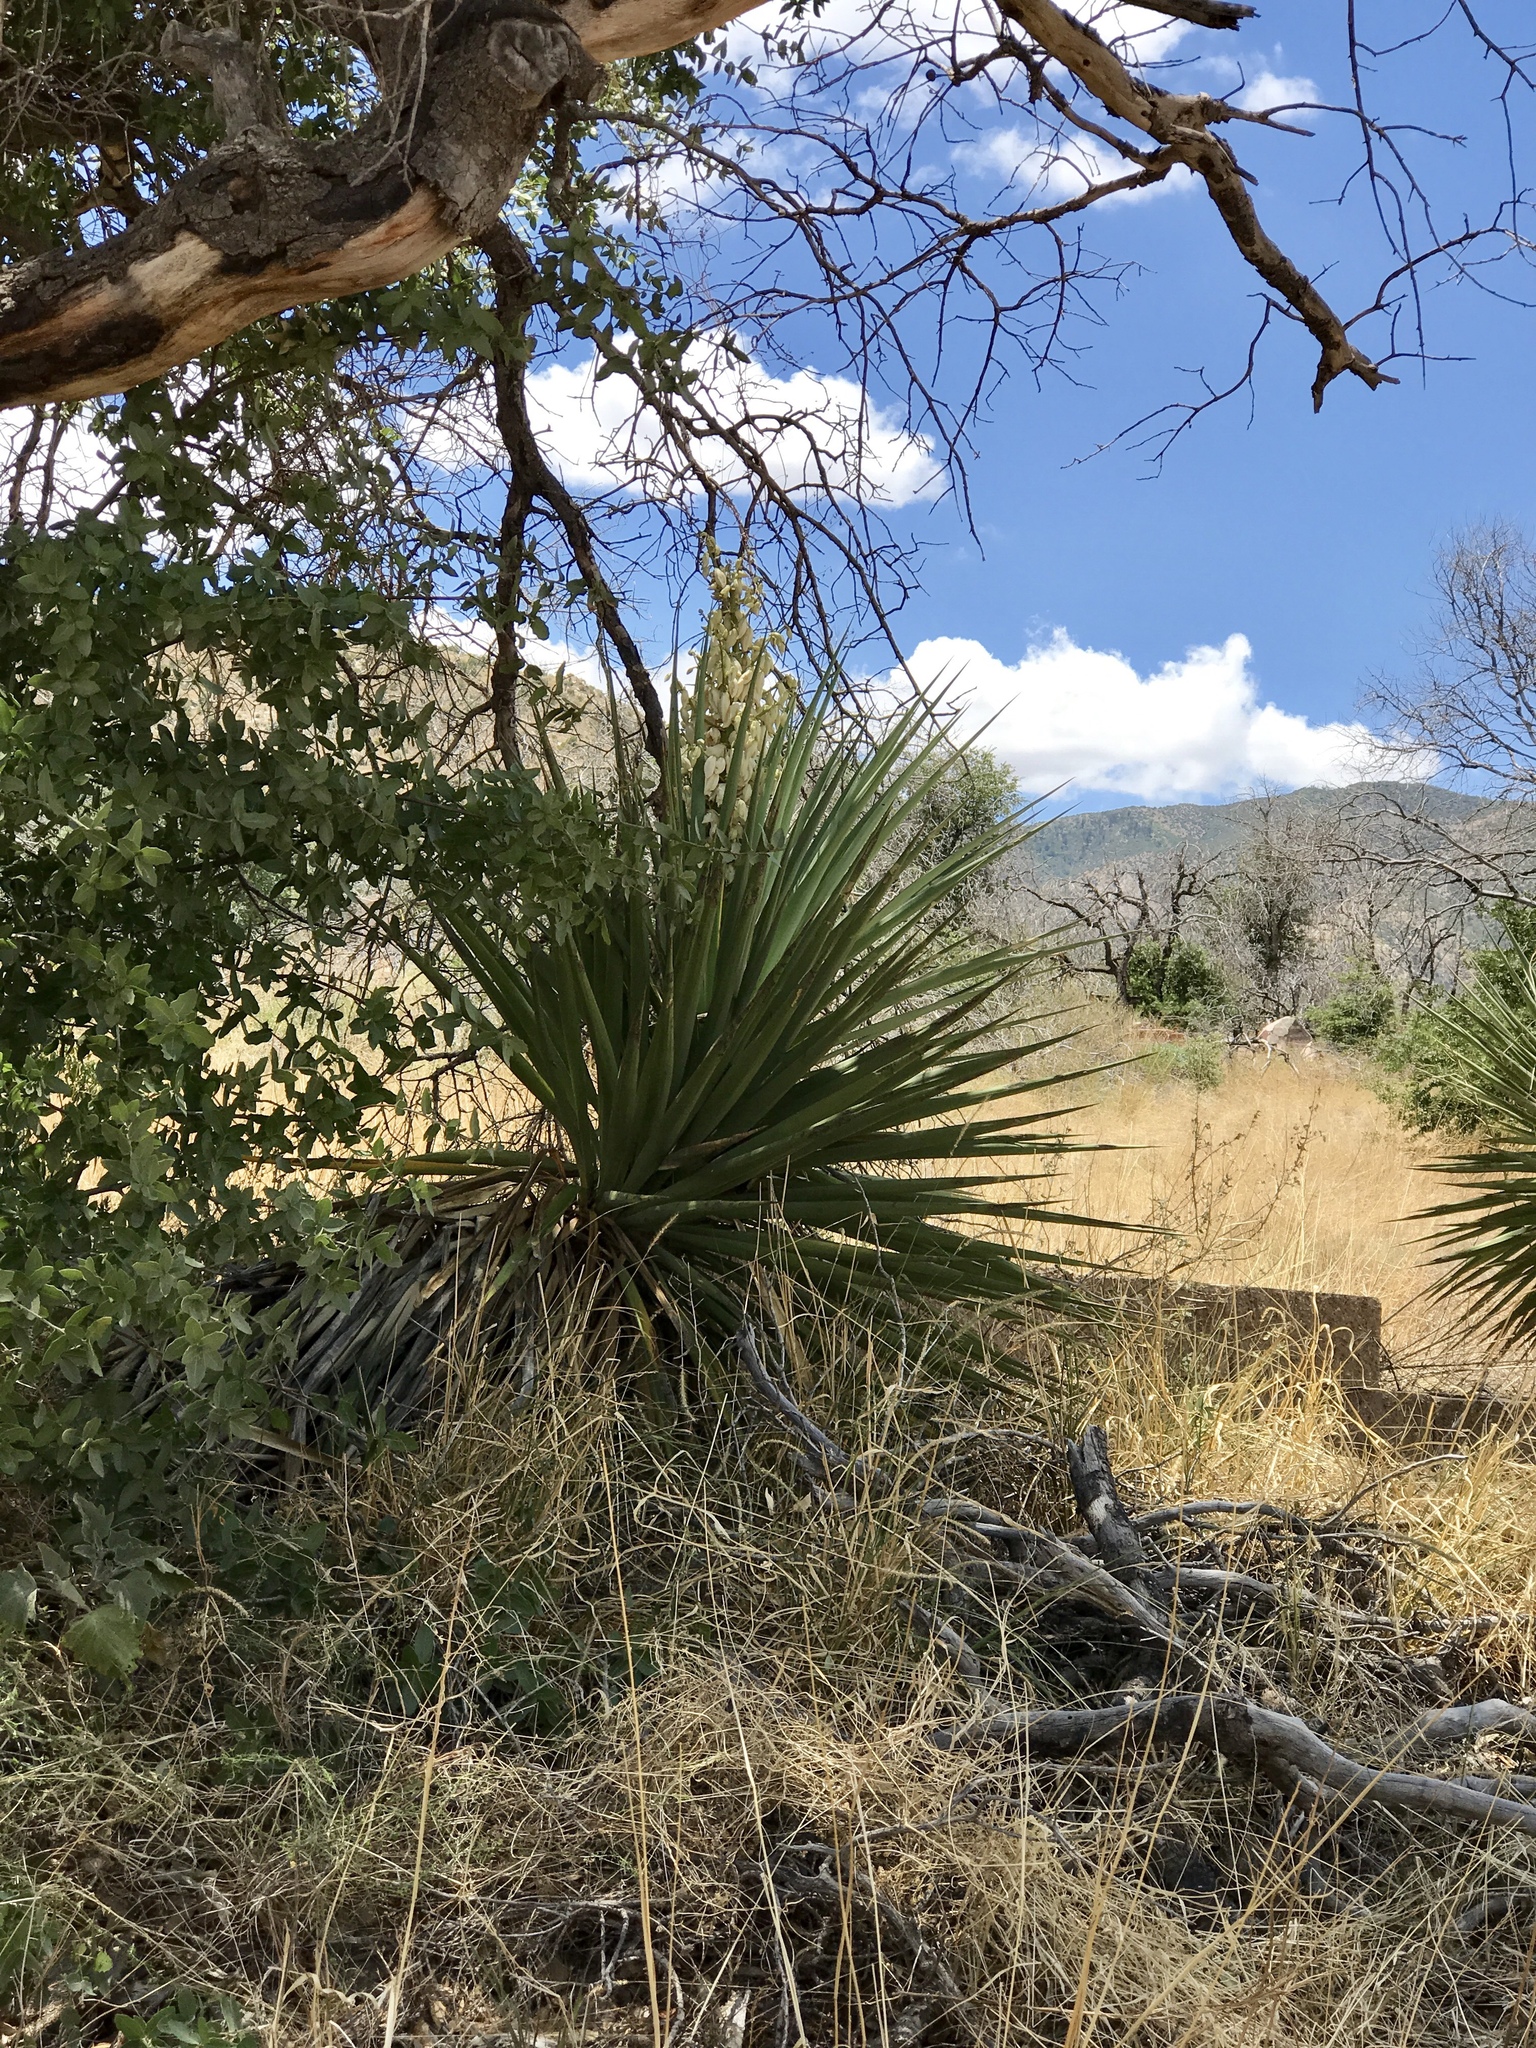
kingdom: Plantae
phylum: Tracheophyta
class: Liliopsida
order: Asparagales
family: Asparagaceae
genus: Yucca
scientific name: Yucca madrensis
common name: Hoary yucca
